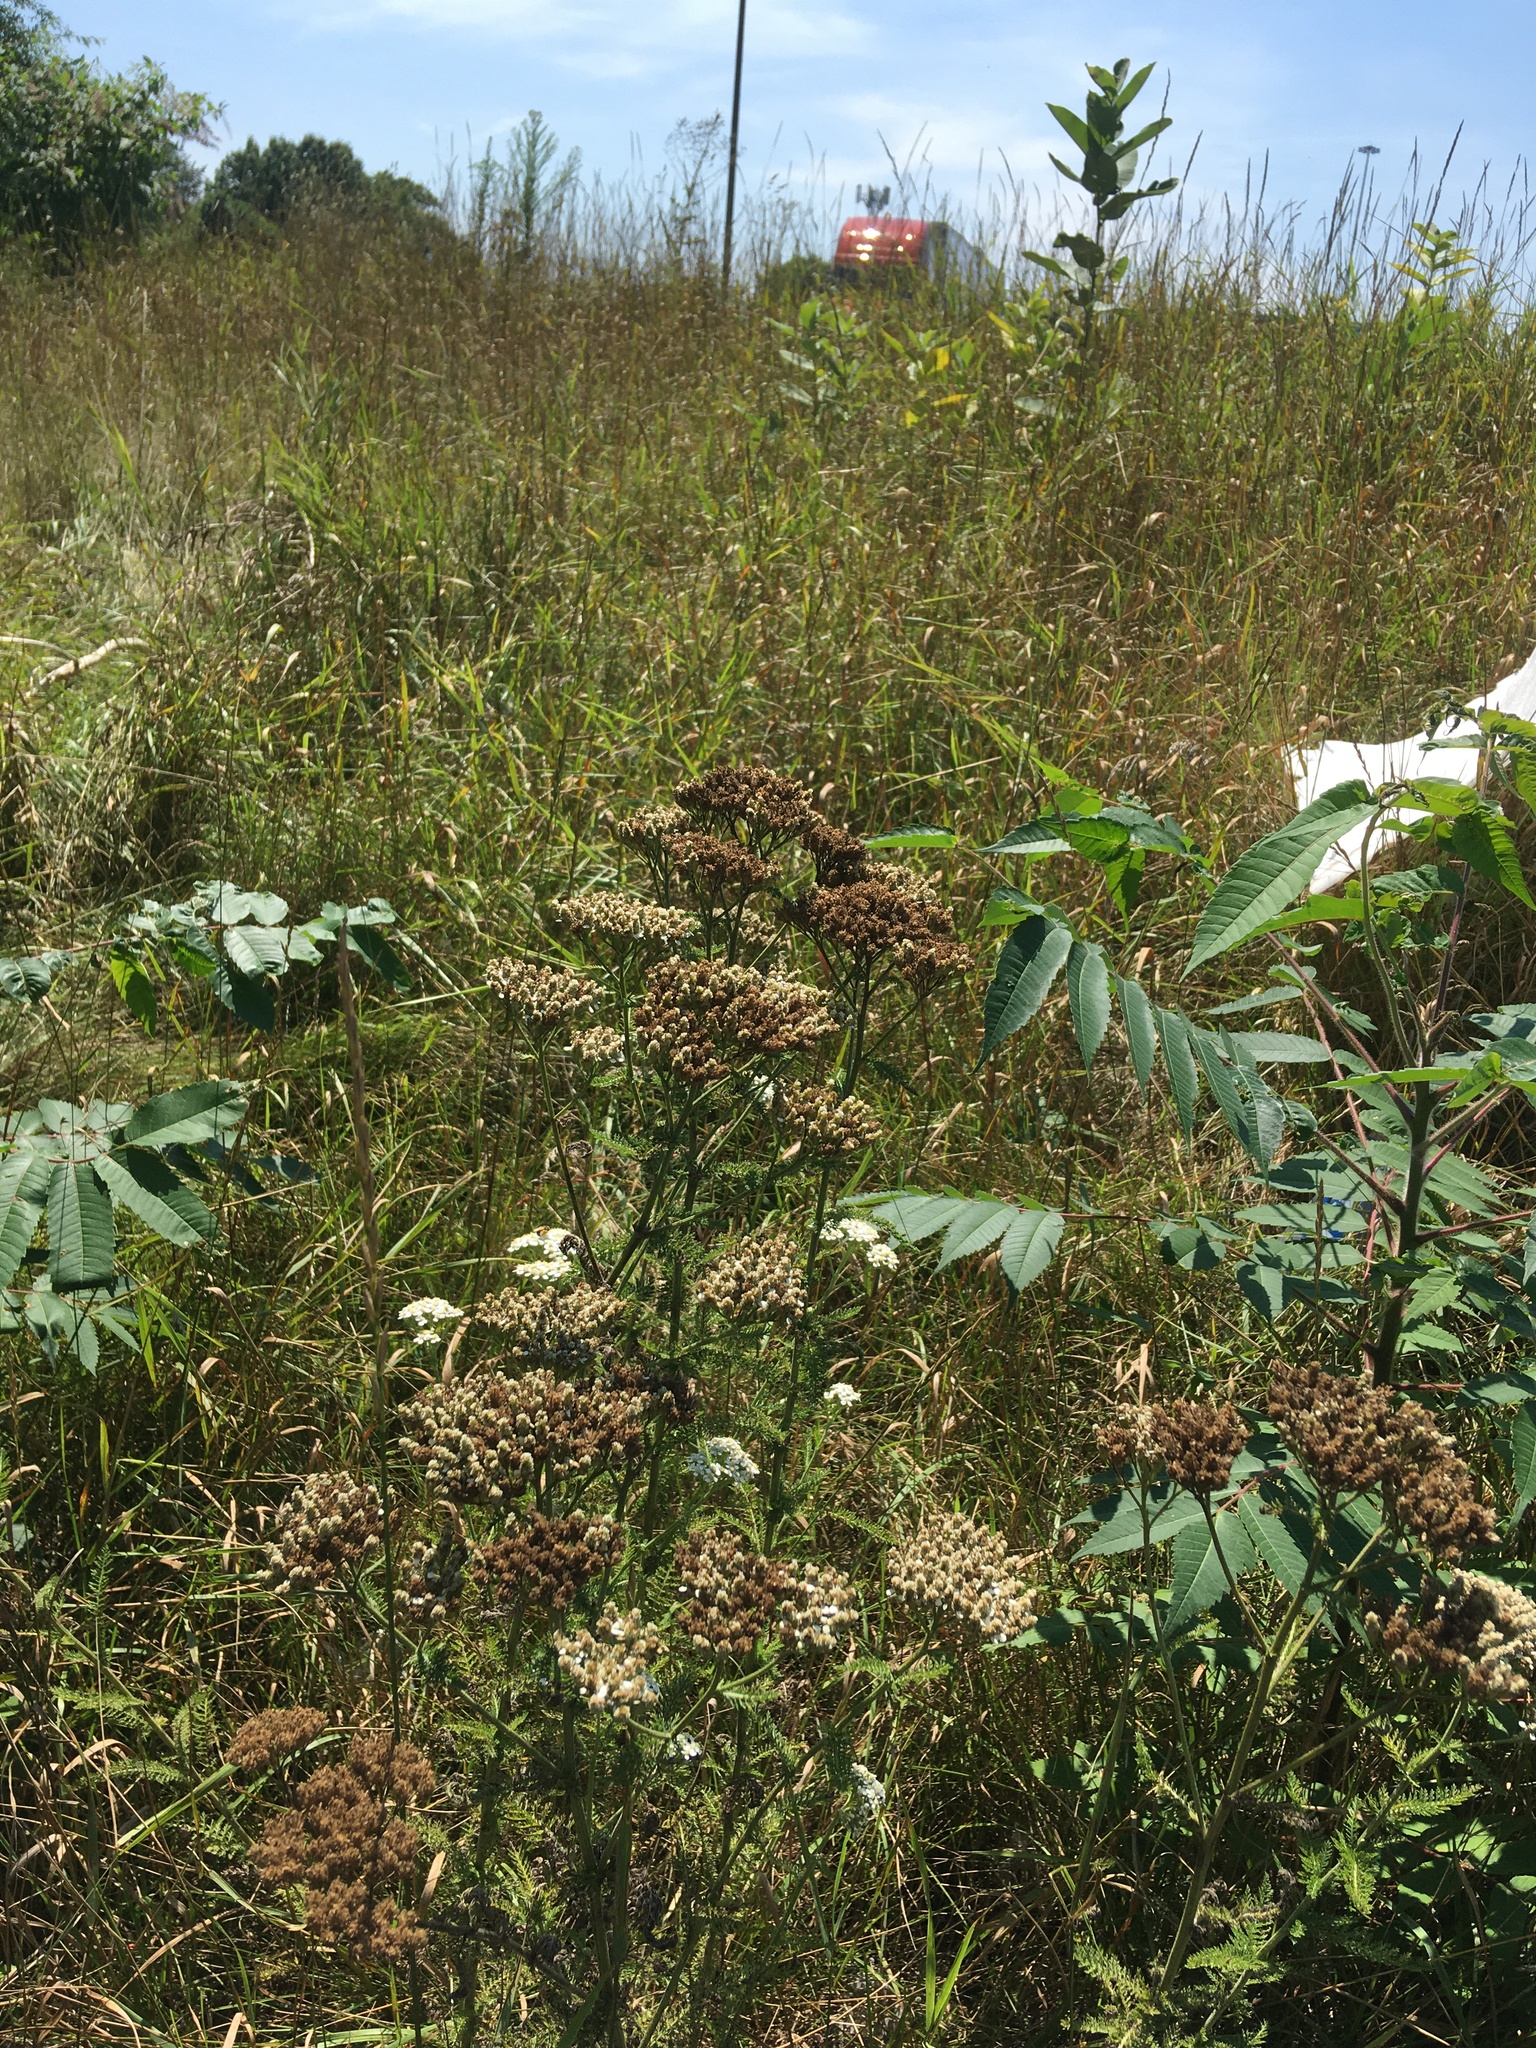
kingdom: Plantae
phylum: Tracheophyta
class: Magnoliopsida
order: Asterales
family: Asteraceae
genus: Achillea
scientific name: Achillea millefolium
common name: Yarrow
